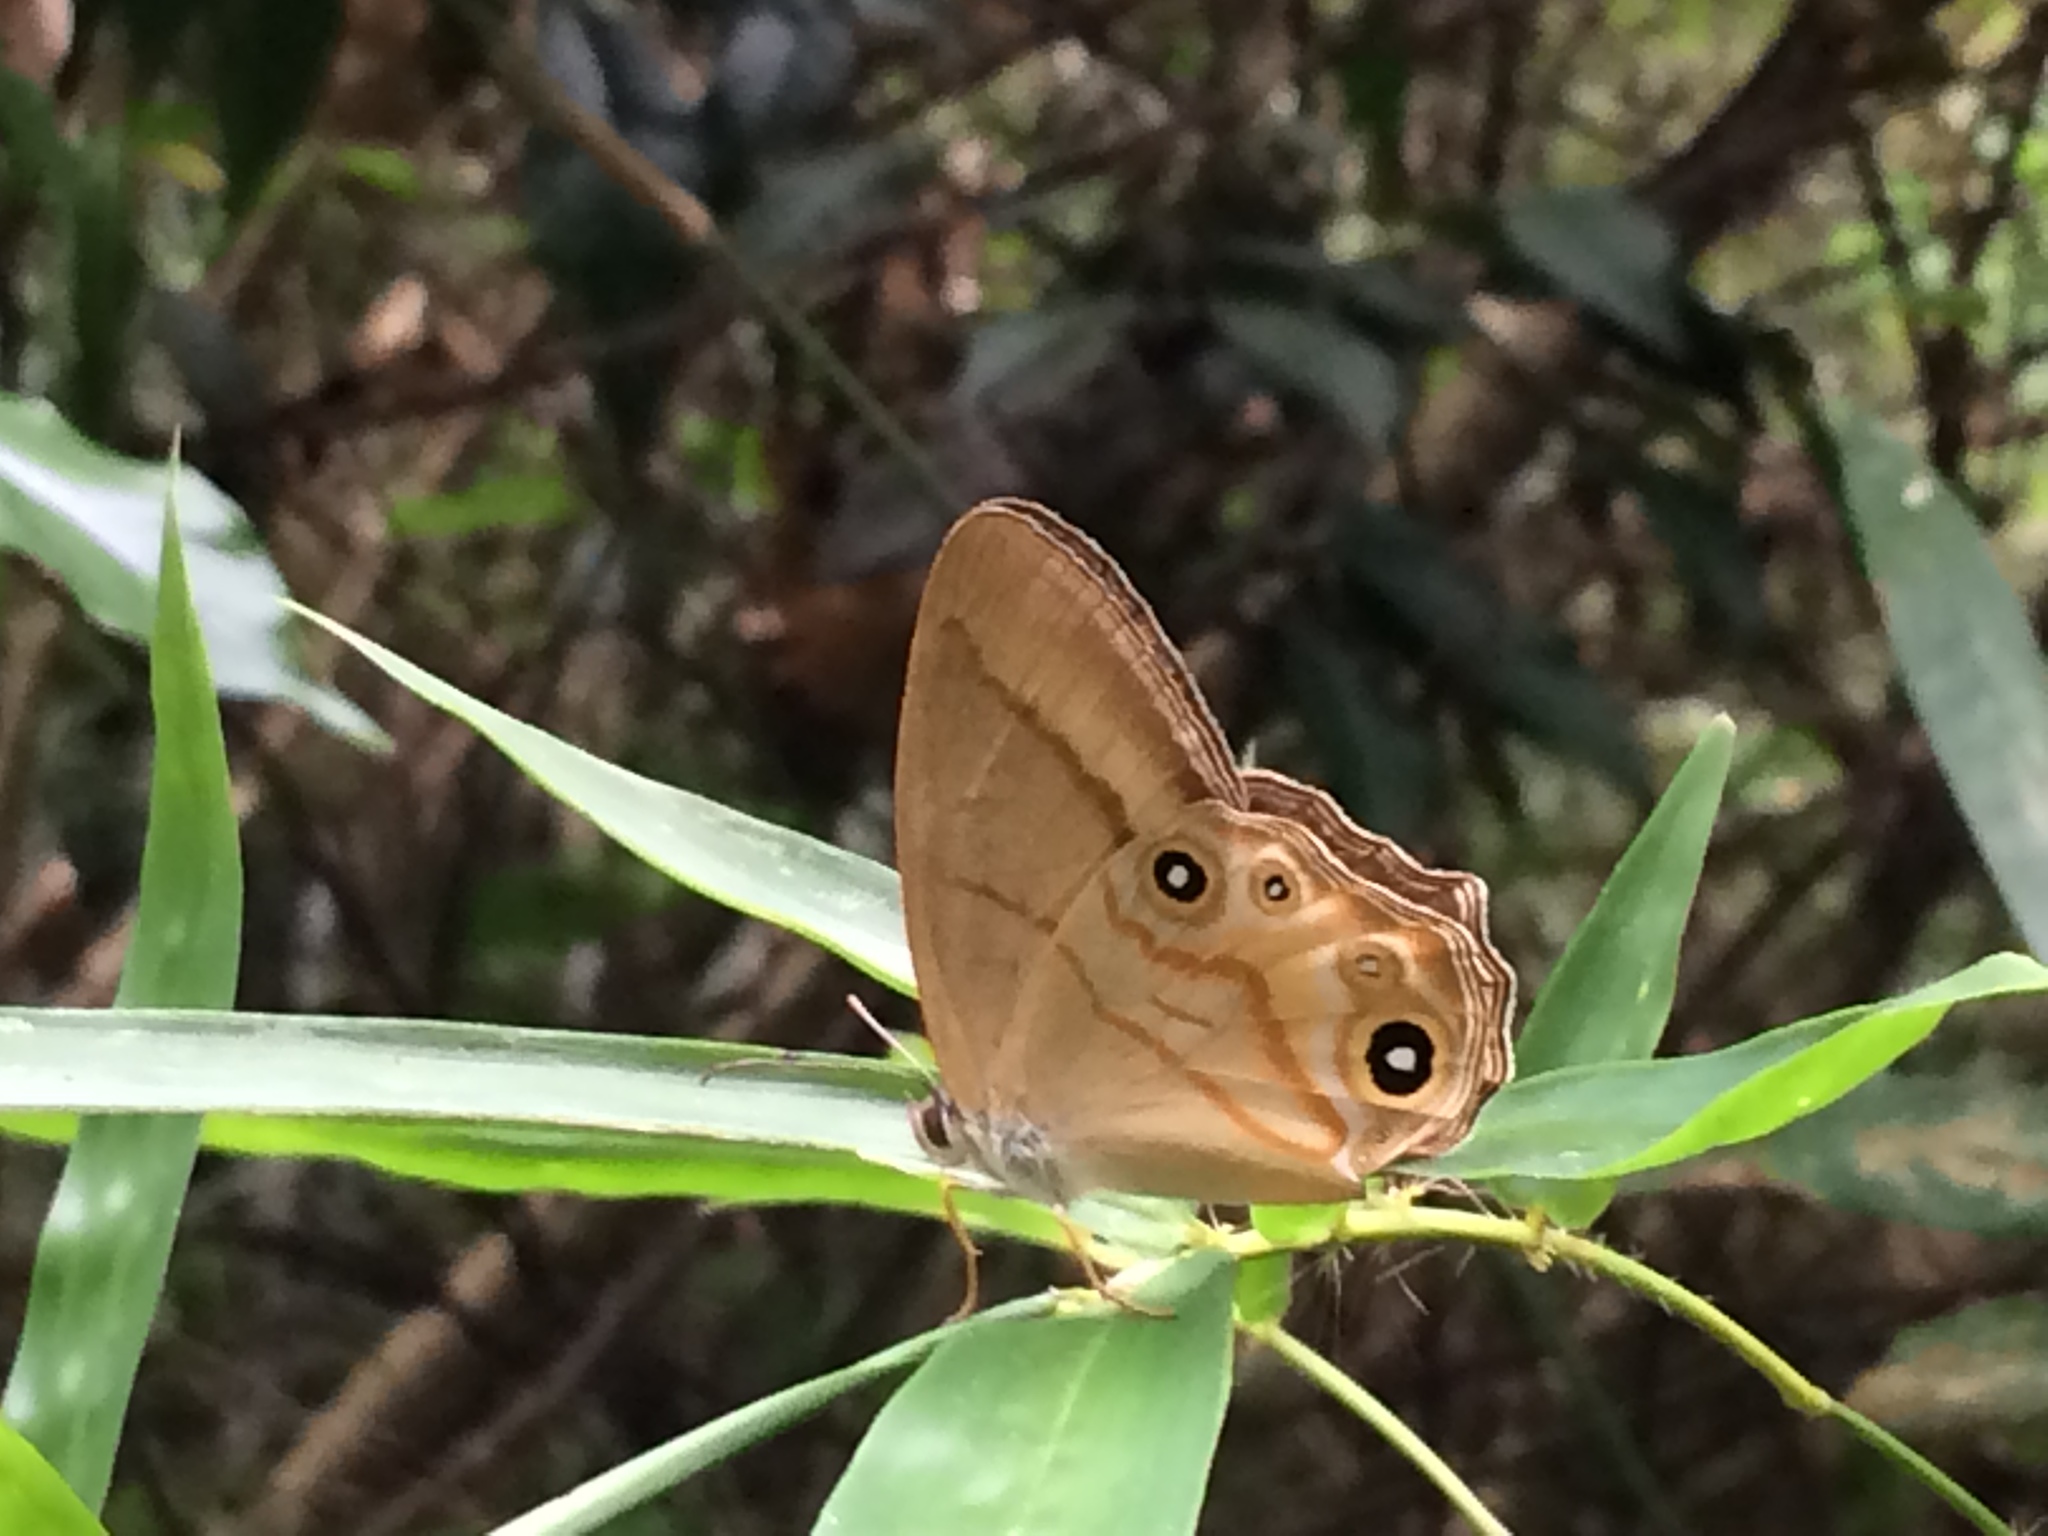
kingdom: Animalia
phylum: Arthropoda
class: Insecta
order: Lepidoptera
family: Nymphalidae
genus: Lethe
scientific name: Lethe syrcis
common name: Yellow forester
